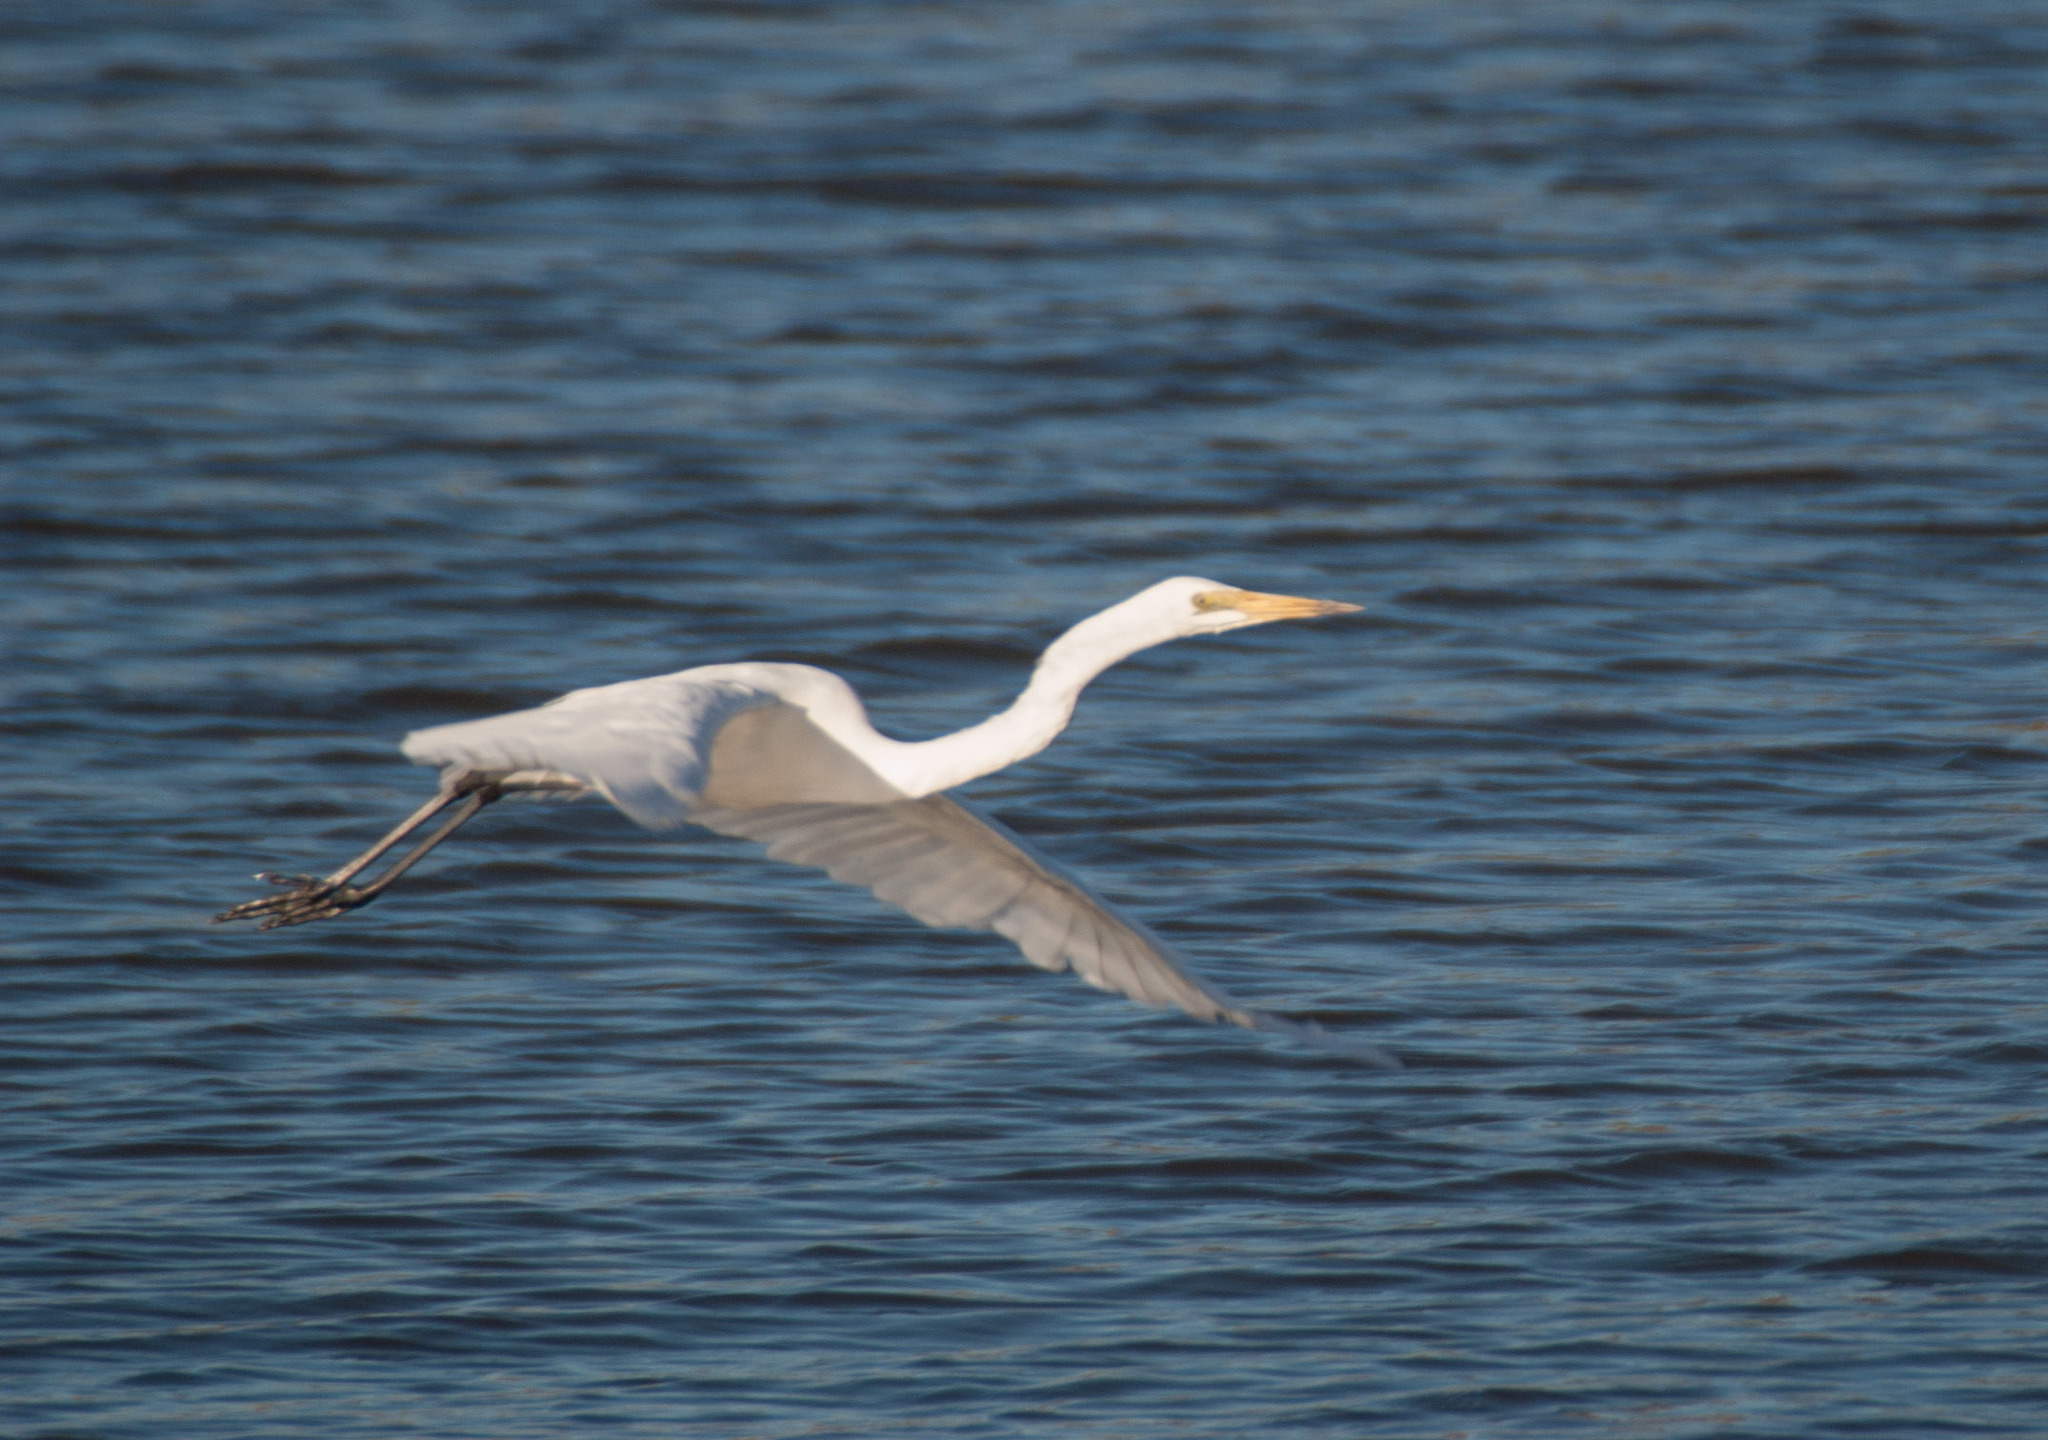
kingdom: Animalia
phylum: Chordata
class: Aves
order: Pelecaniformes
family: Ardeidae
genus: Ardea
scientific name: Ardea modesta
